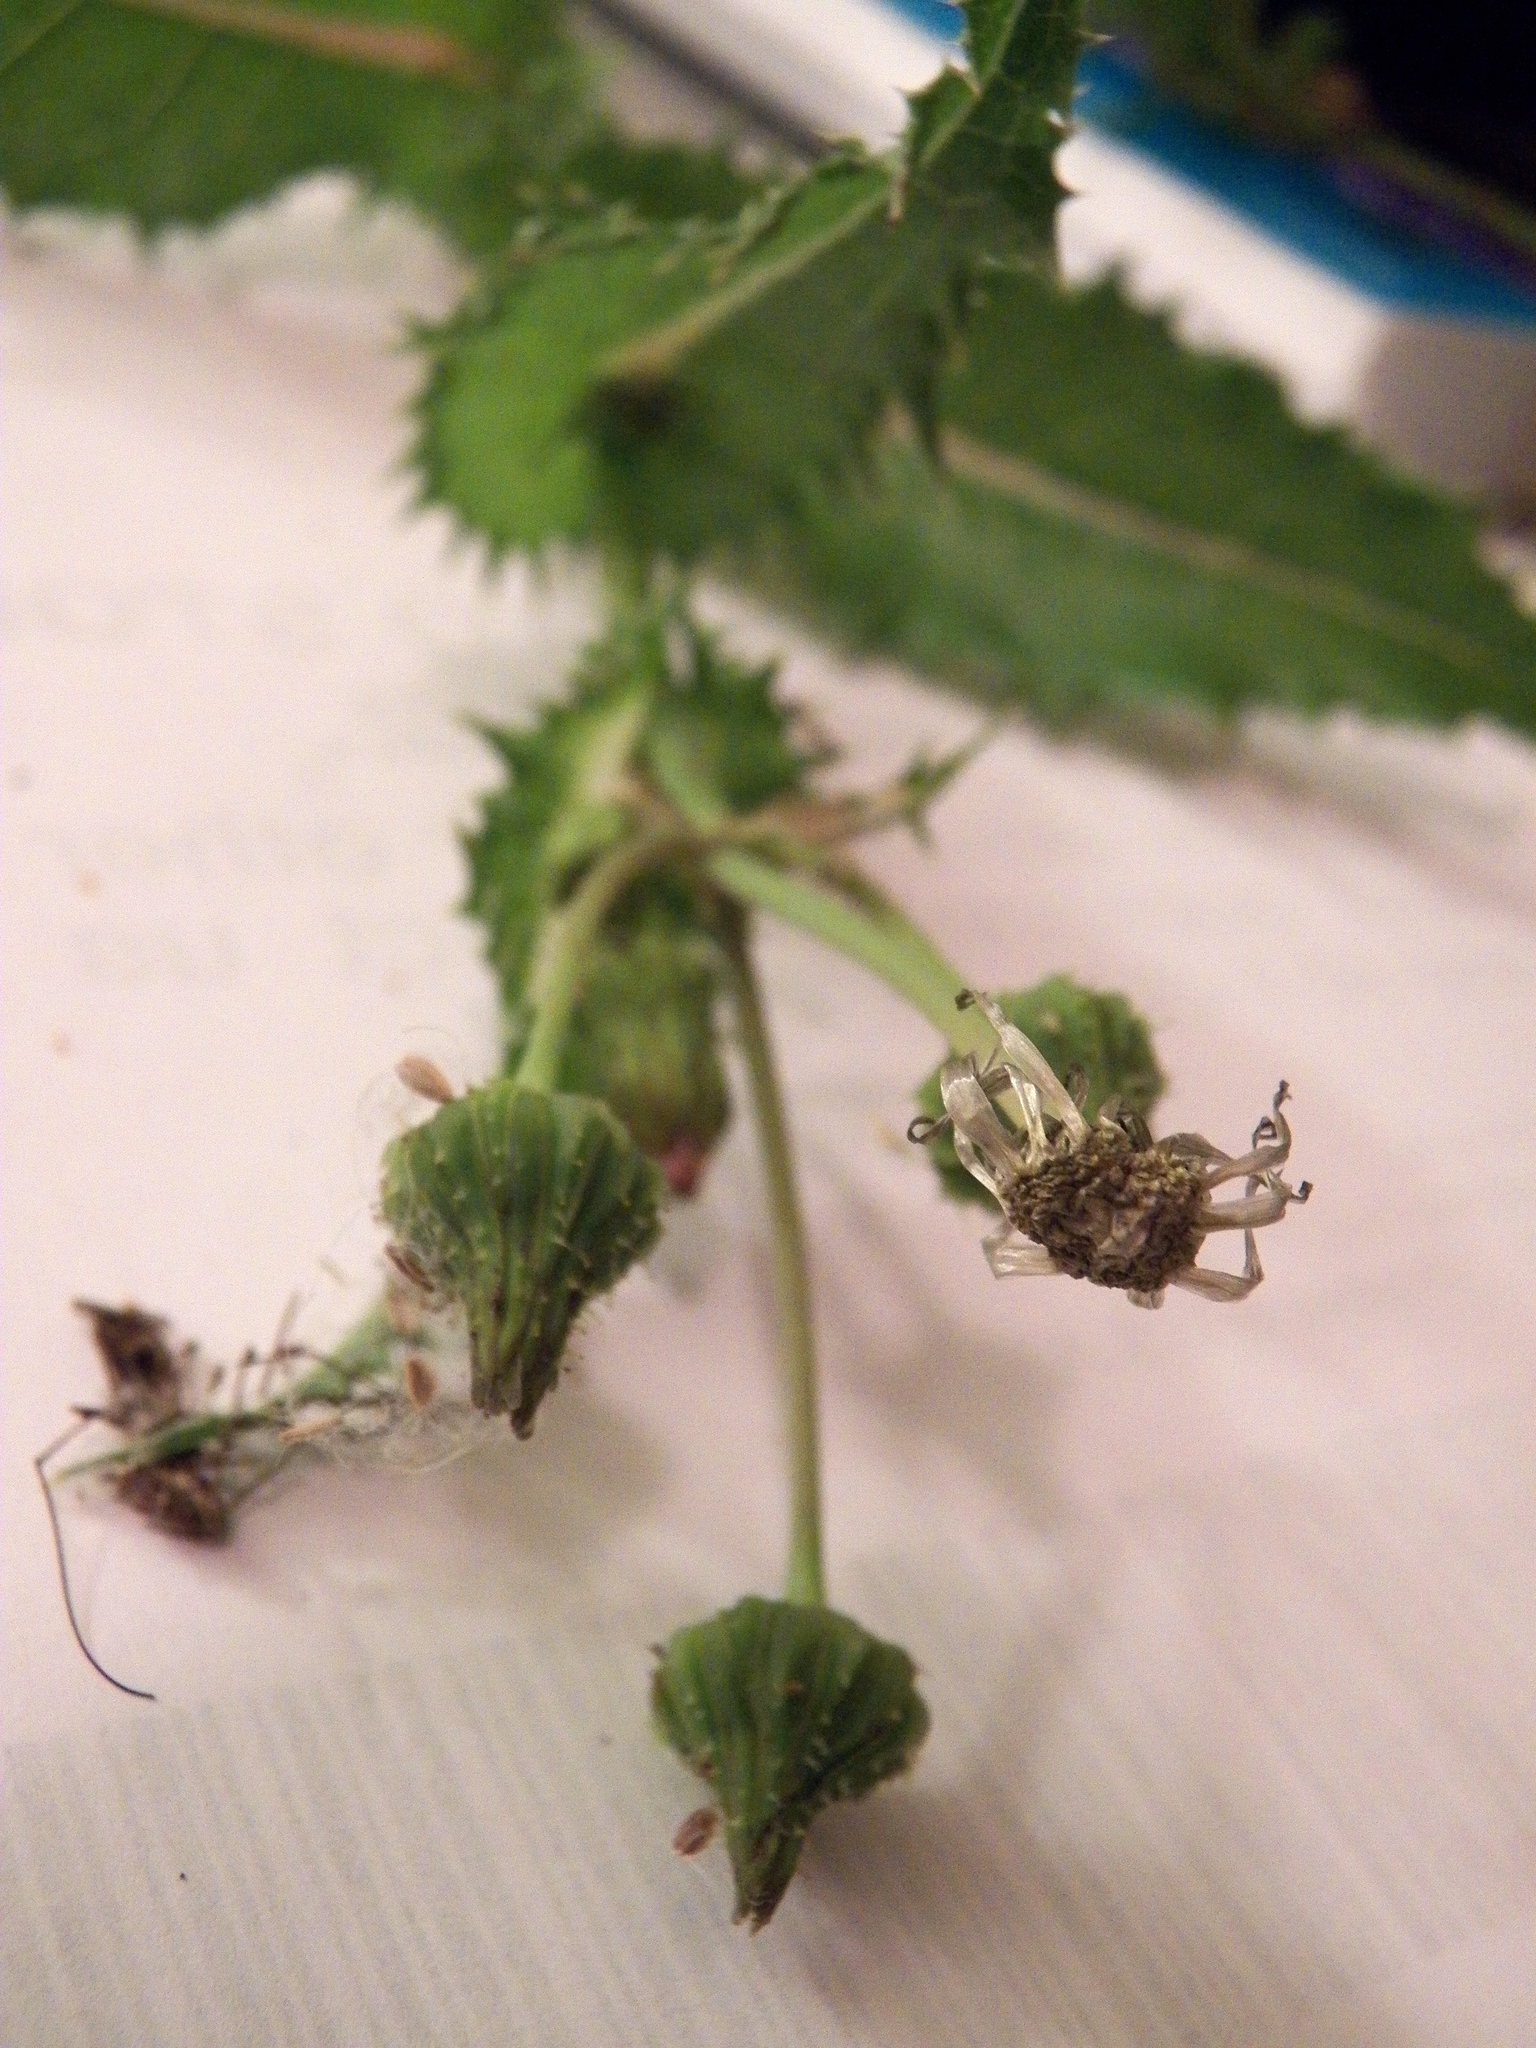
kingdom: Plantae
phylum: Tracheophyta
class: Magnoliopsida
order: Asterales
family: Asteraceae
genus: Sonchus
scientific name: Sonchus asper
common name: Prickly sow-thistle
